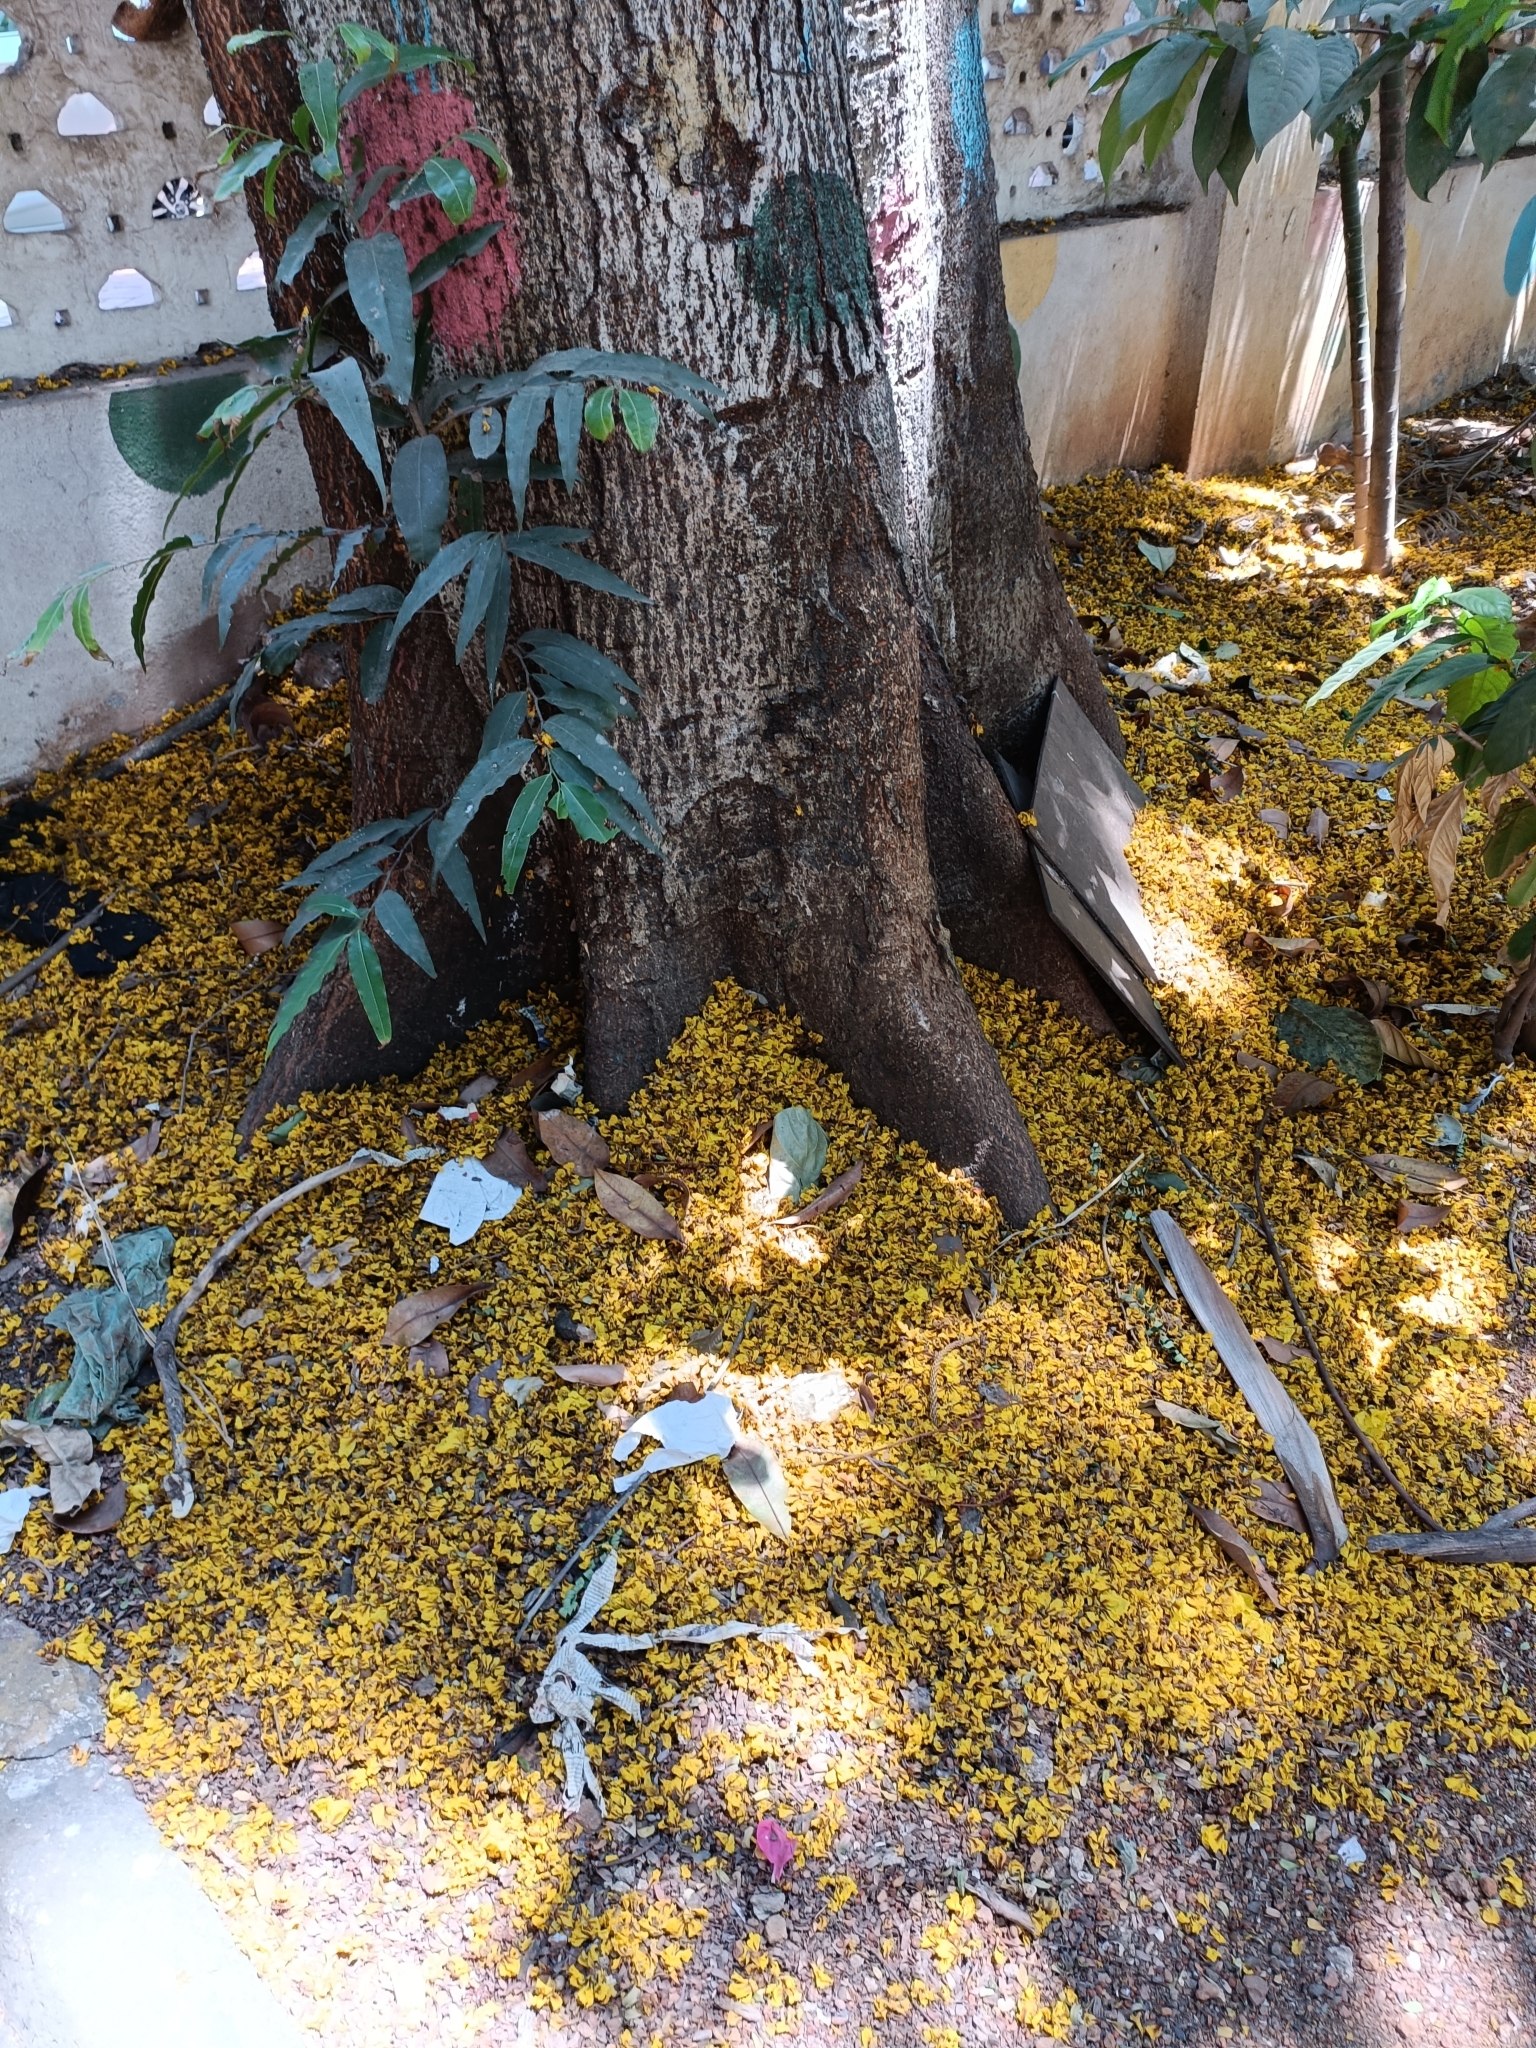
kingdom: Plantae
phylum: Tracheophyta
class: Magnoliopsida
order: Fabales
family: Fabaceae
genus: Peltophorum
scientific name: Peltophorum pterocarpum
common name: Yellow flame
